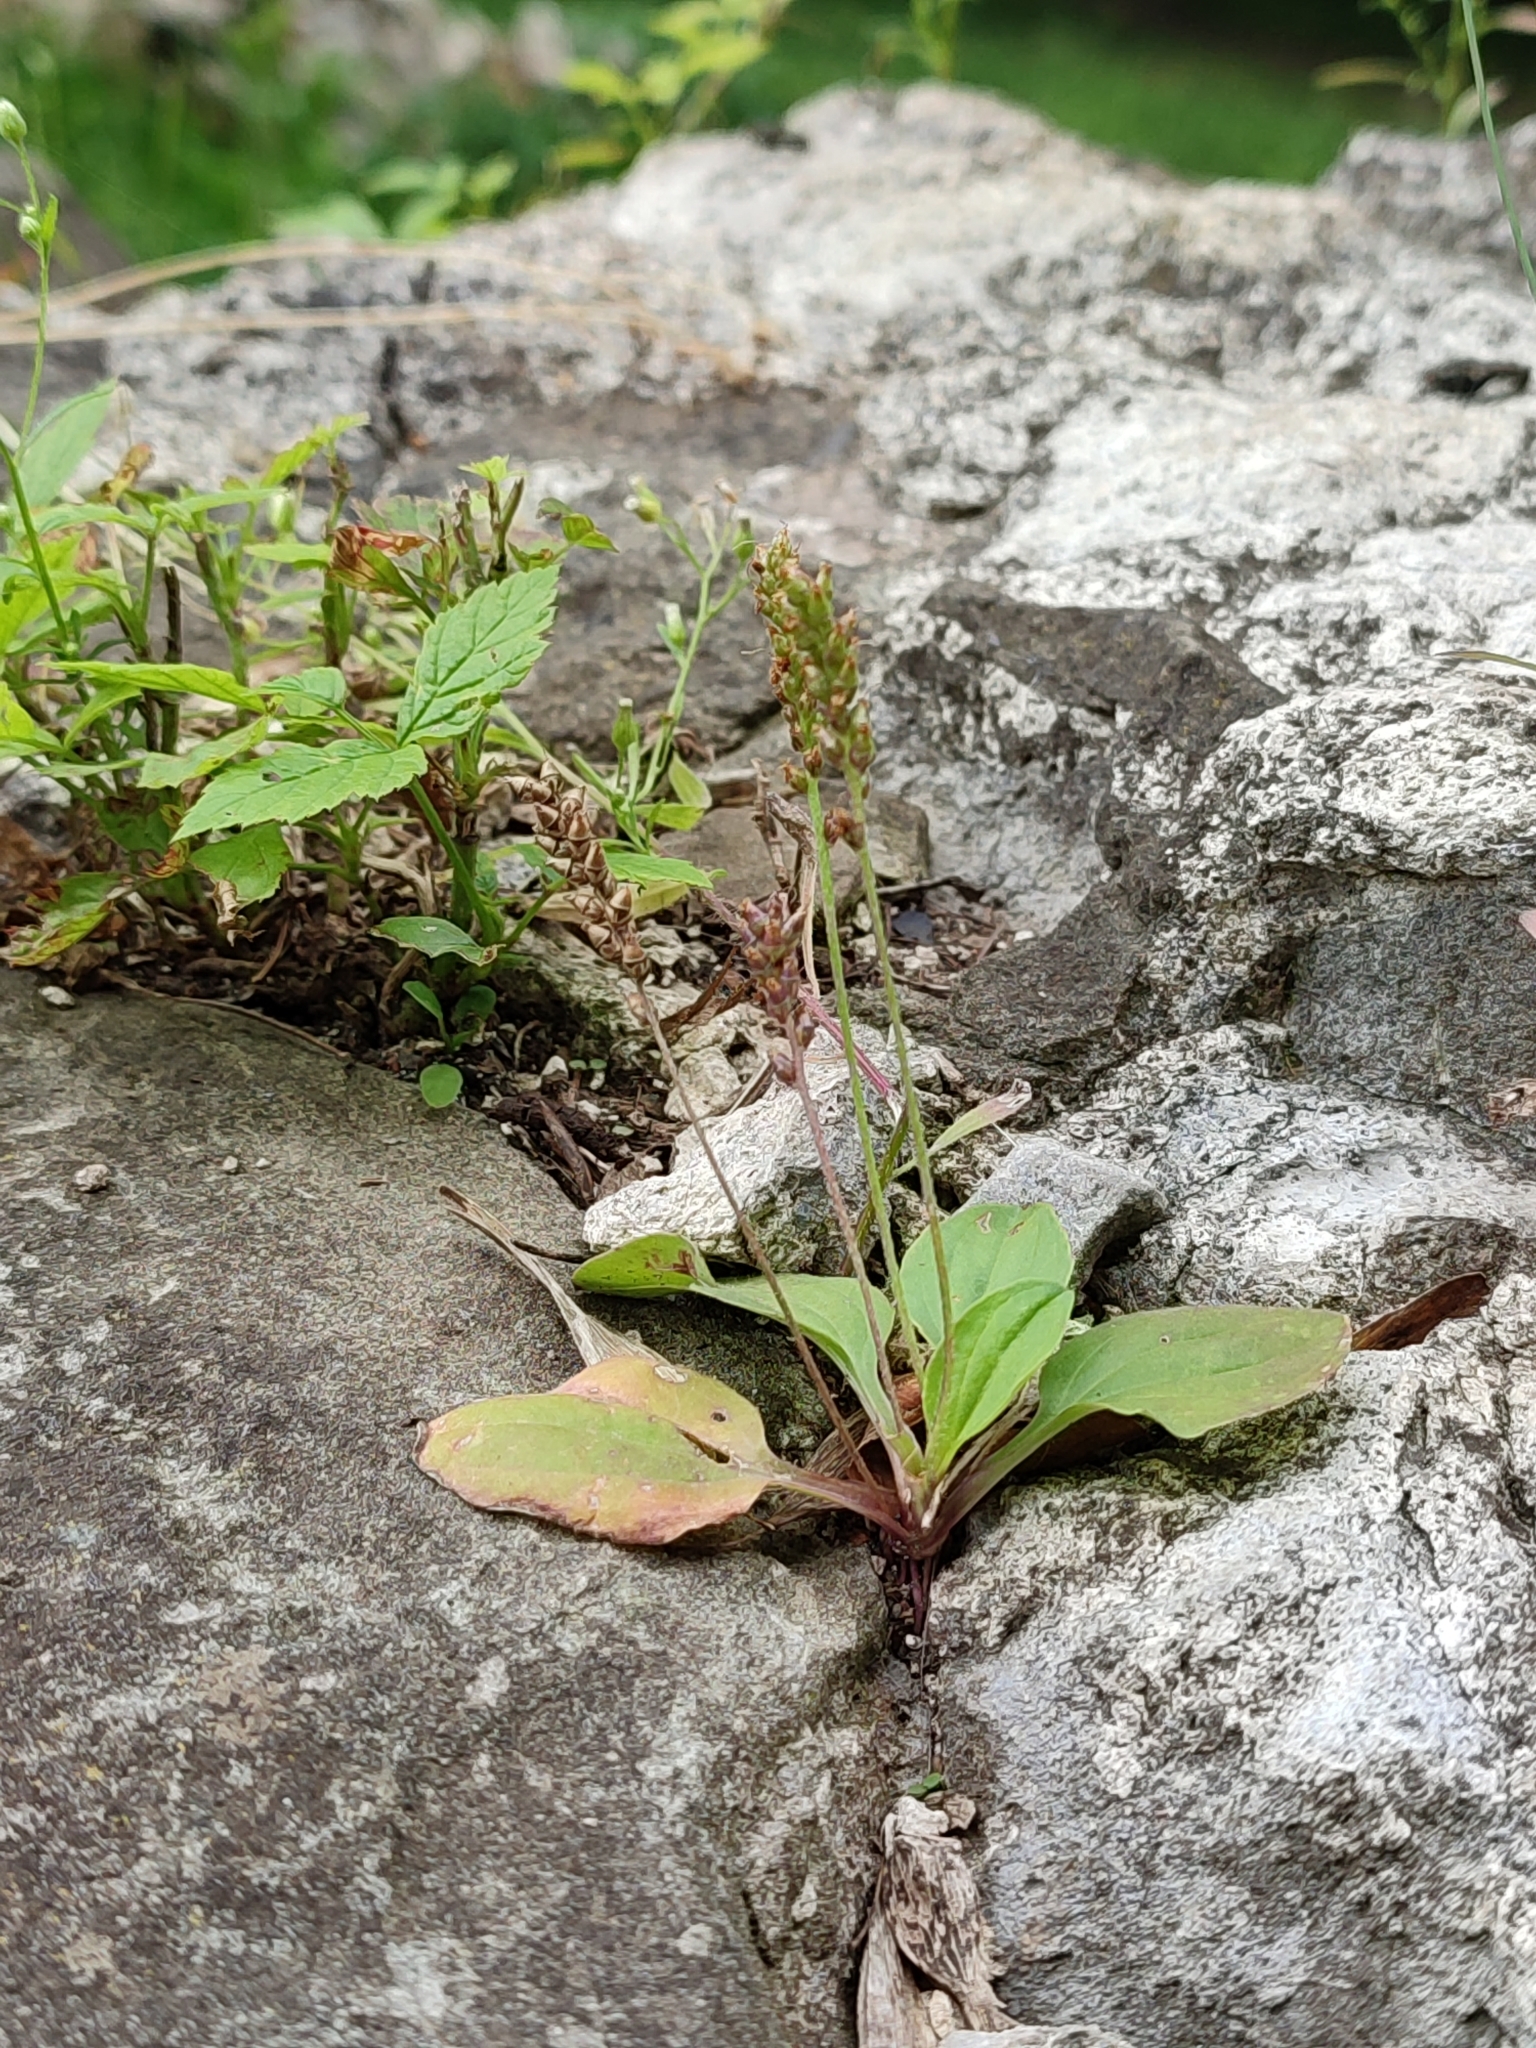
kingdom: Plantae
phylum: Tracheophyta
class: Magnoliopsida
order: Lamiales
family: Plantaginaceae
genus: Plantago
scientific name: Plantago major
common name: Common plantain
